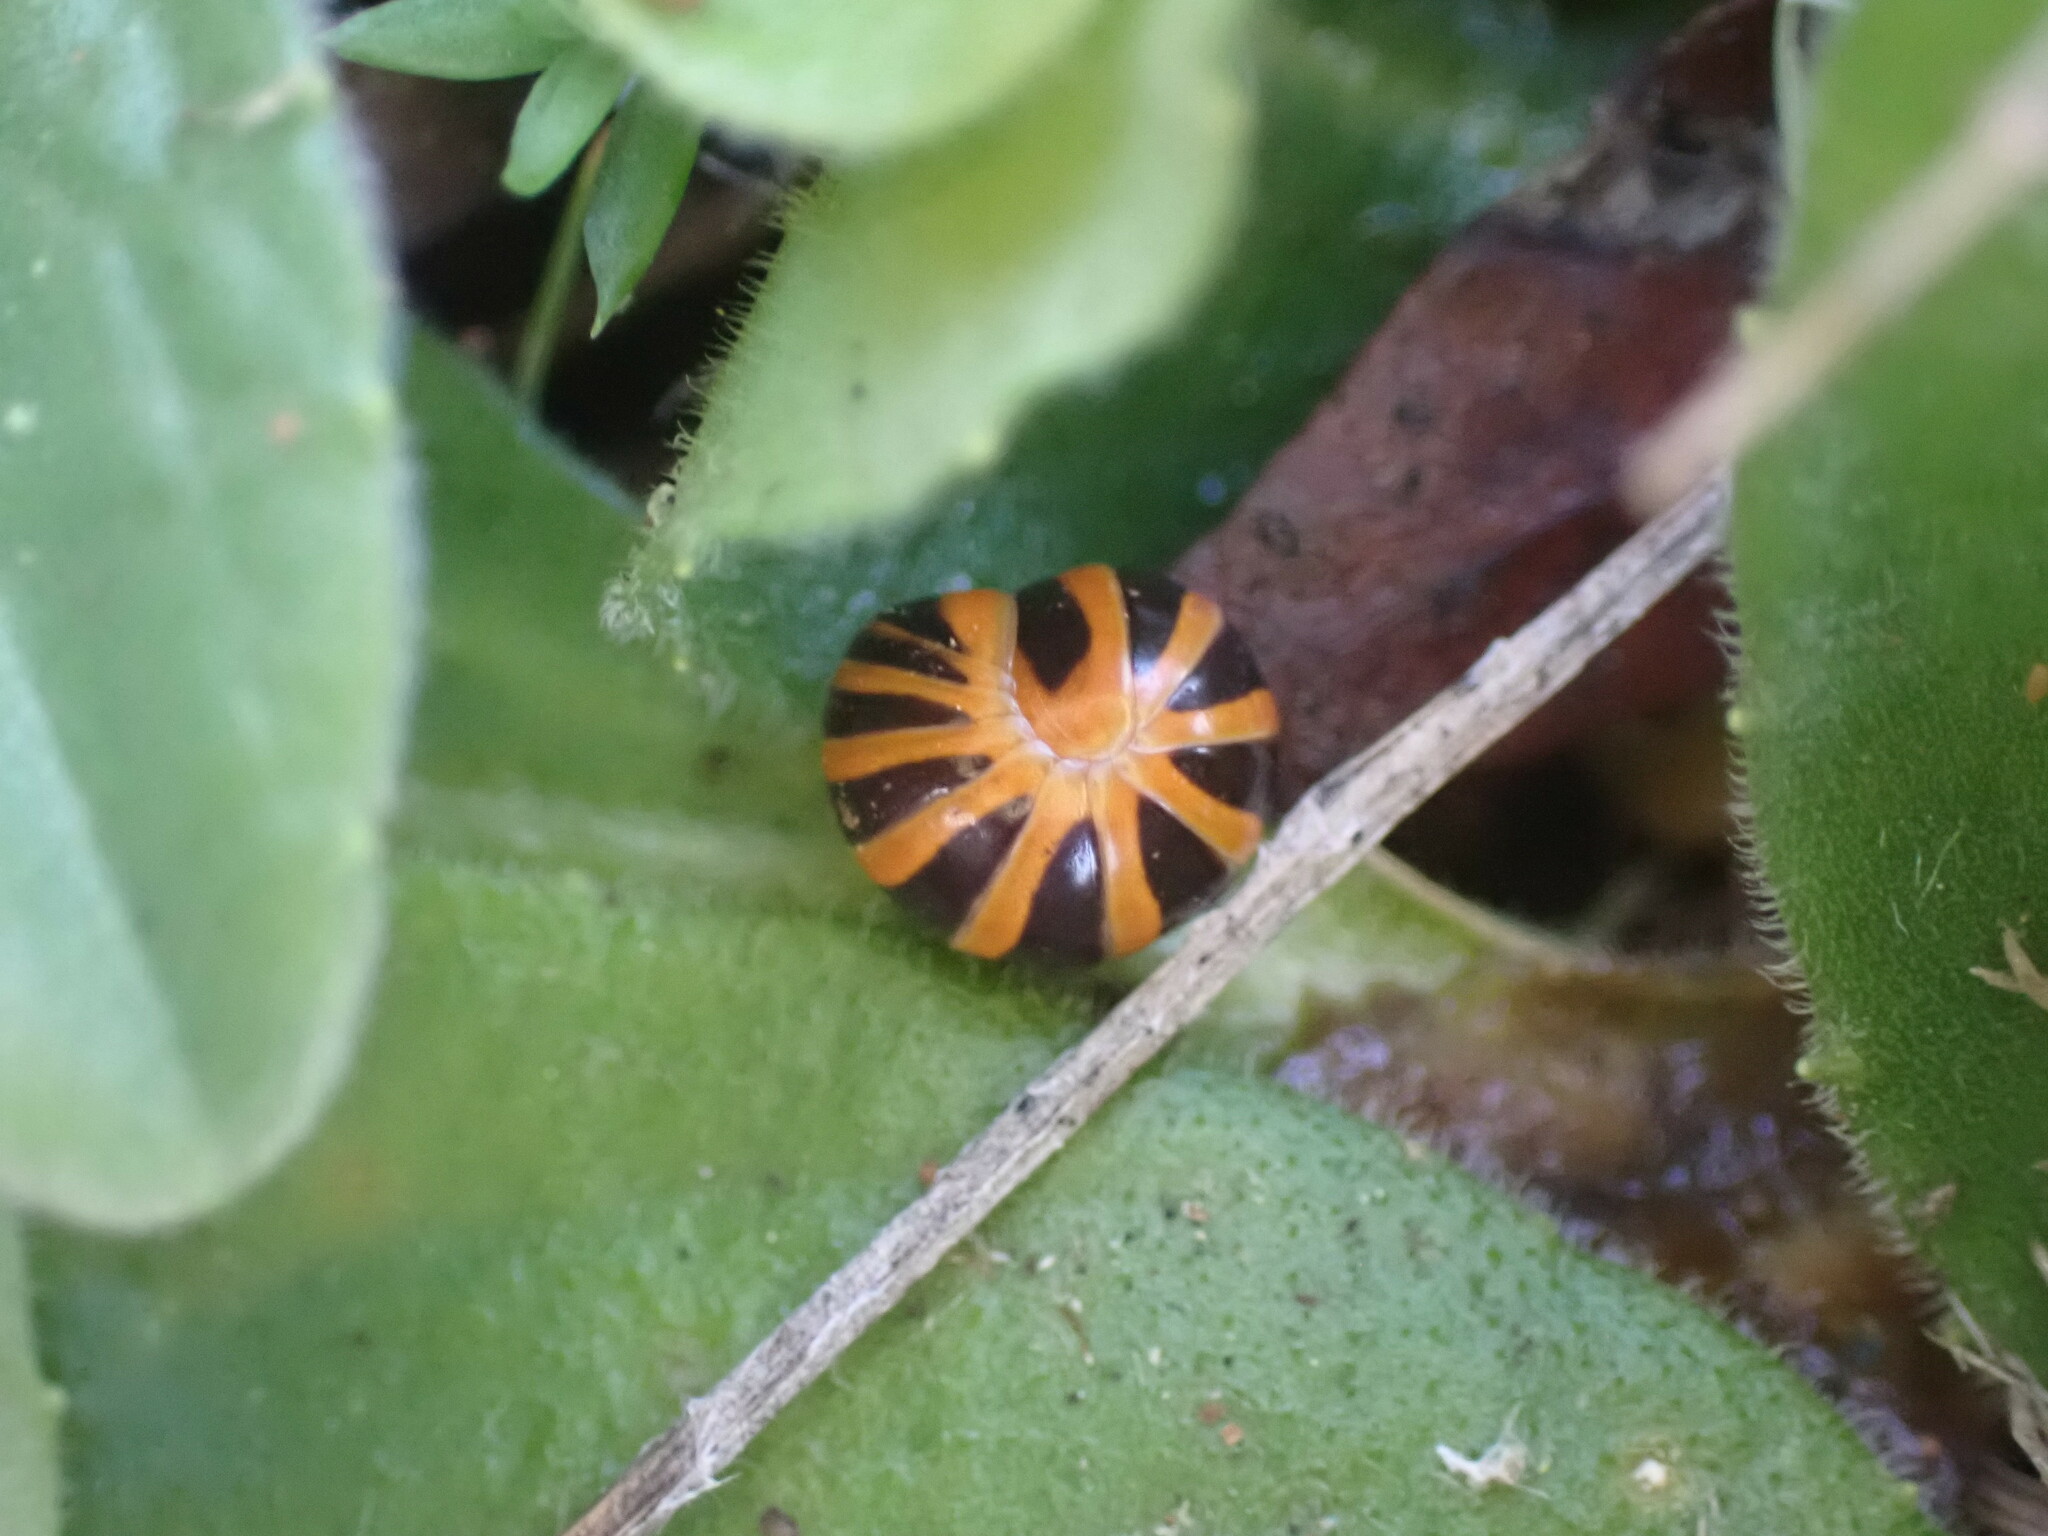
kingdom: Animalia
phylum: Arthropoda
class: Diplopoda
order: Glomerida
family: Glomeridae
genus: Glomeris
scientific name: Glomeris annulata
